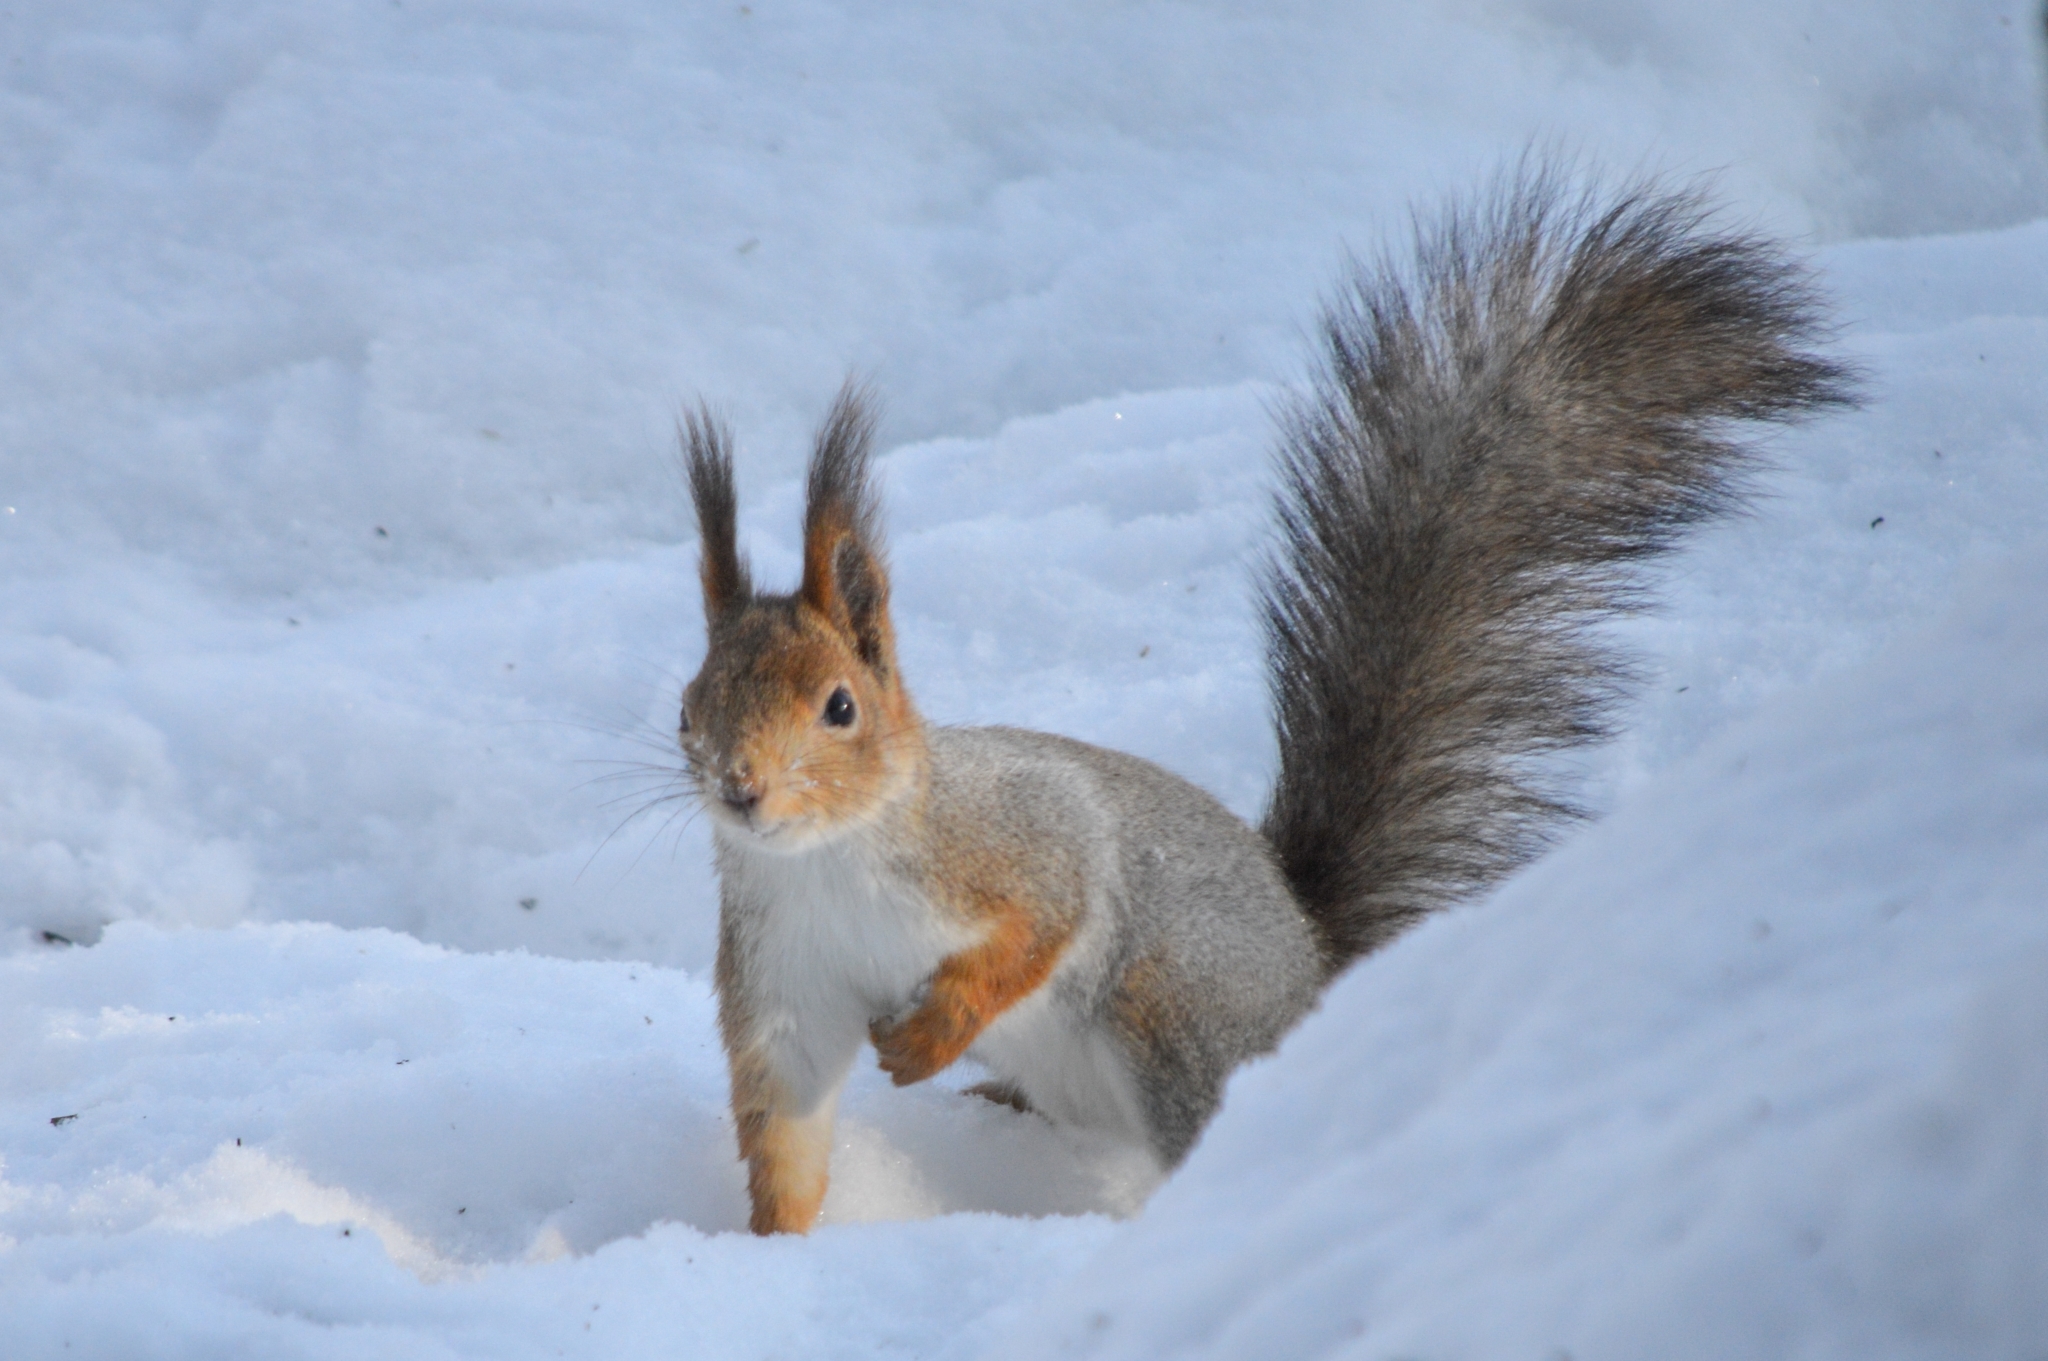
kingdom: Animalia
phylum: Chordata
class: Mammalia
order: Rodentia
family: Sciuridae
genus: Sciurus
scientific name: Sciurus vulgaris
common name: Eurasian red squirrel
